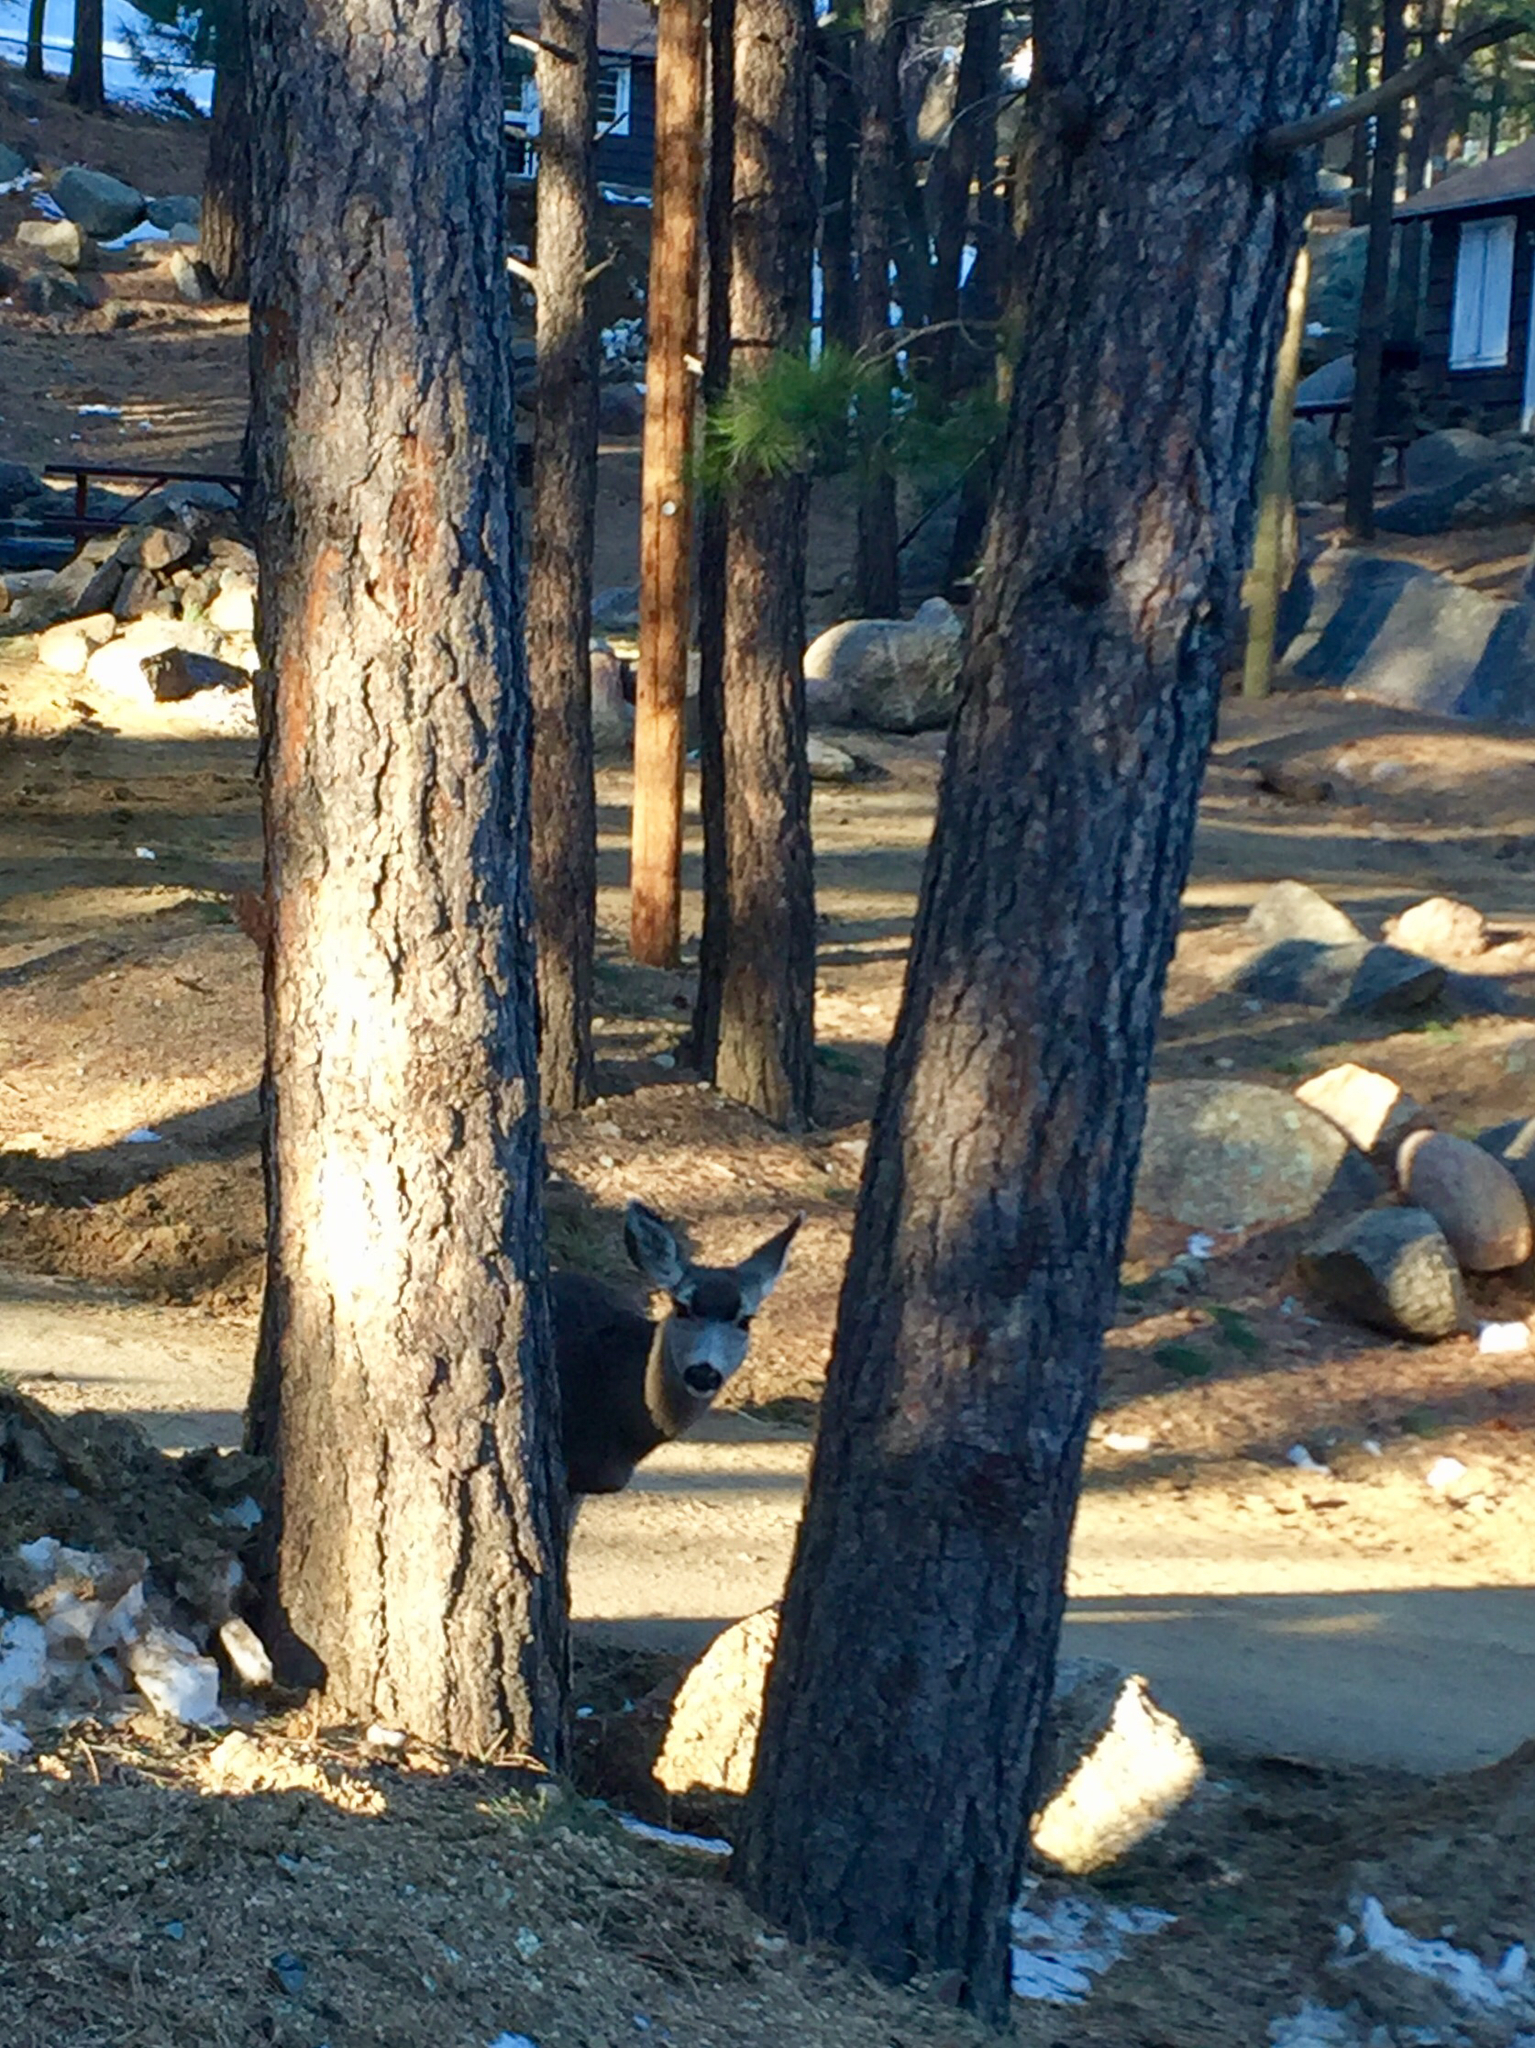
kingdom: Animalia
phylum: Chordata
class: Mammalia
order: Artiodactyla
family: Cervidae
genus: Odocoileus
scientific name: Odocoileus hemionus
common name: Mule deer
